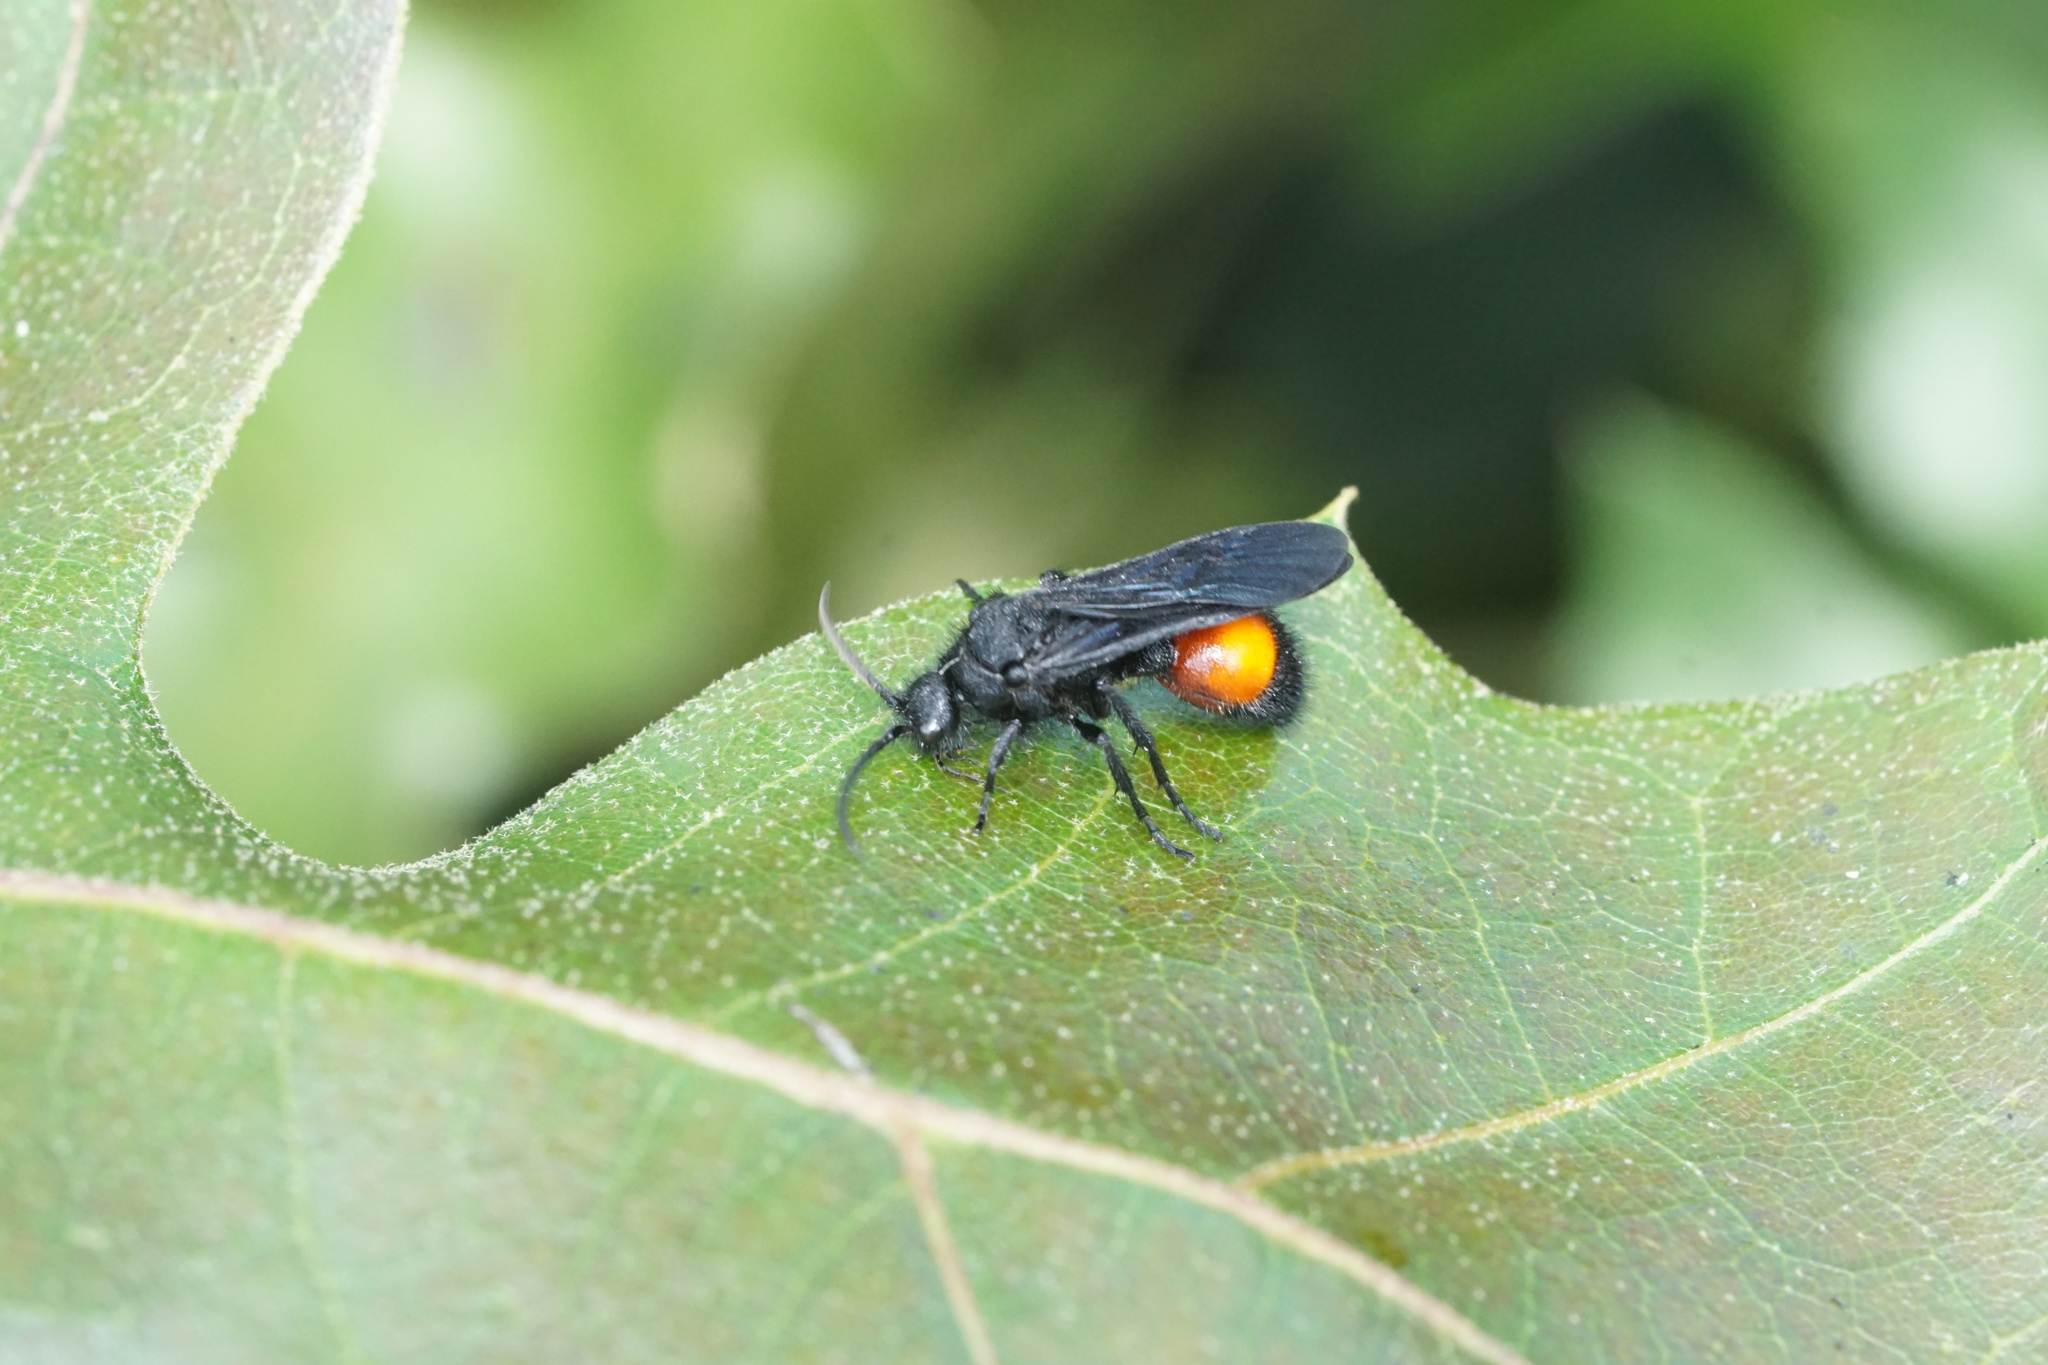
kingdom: Animalia
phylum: Arthropoda
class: Insecta
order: Hymenoptera
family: Mutillidae
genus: Dasymutilla
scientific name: Dasymutilla
